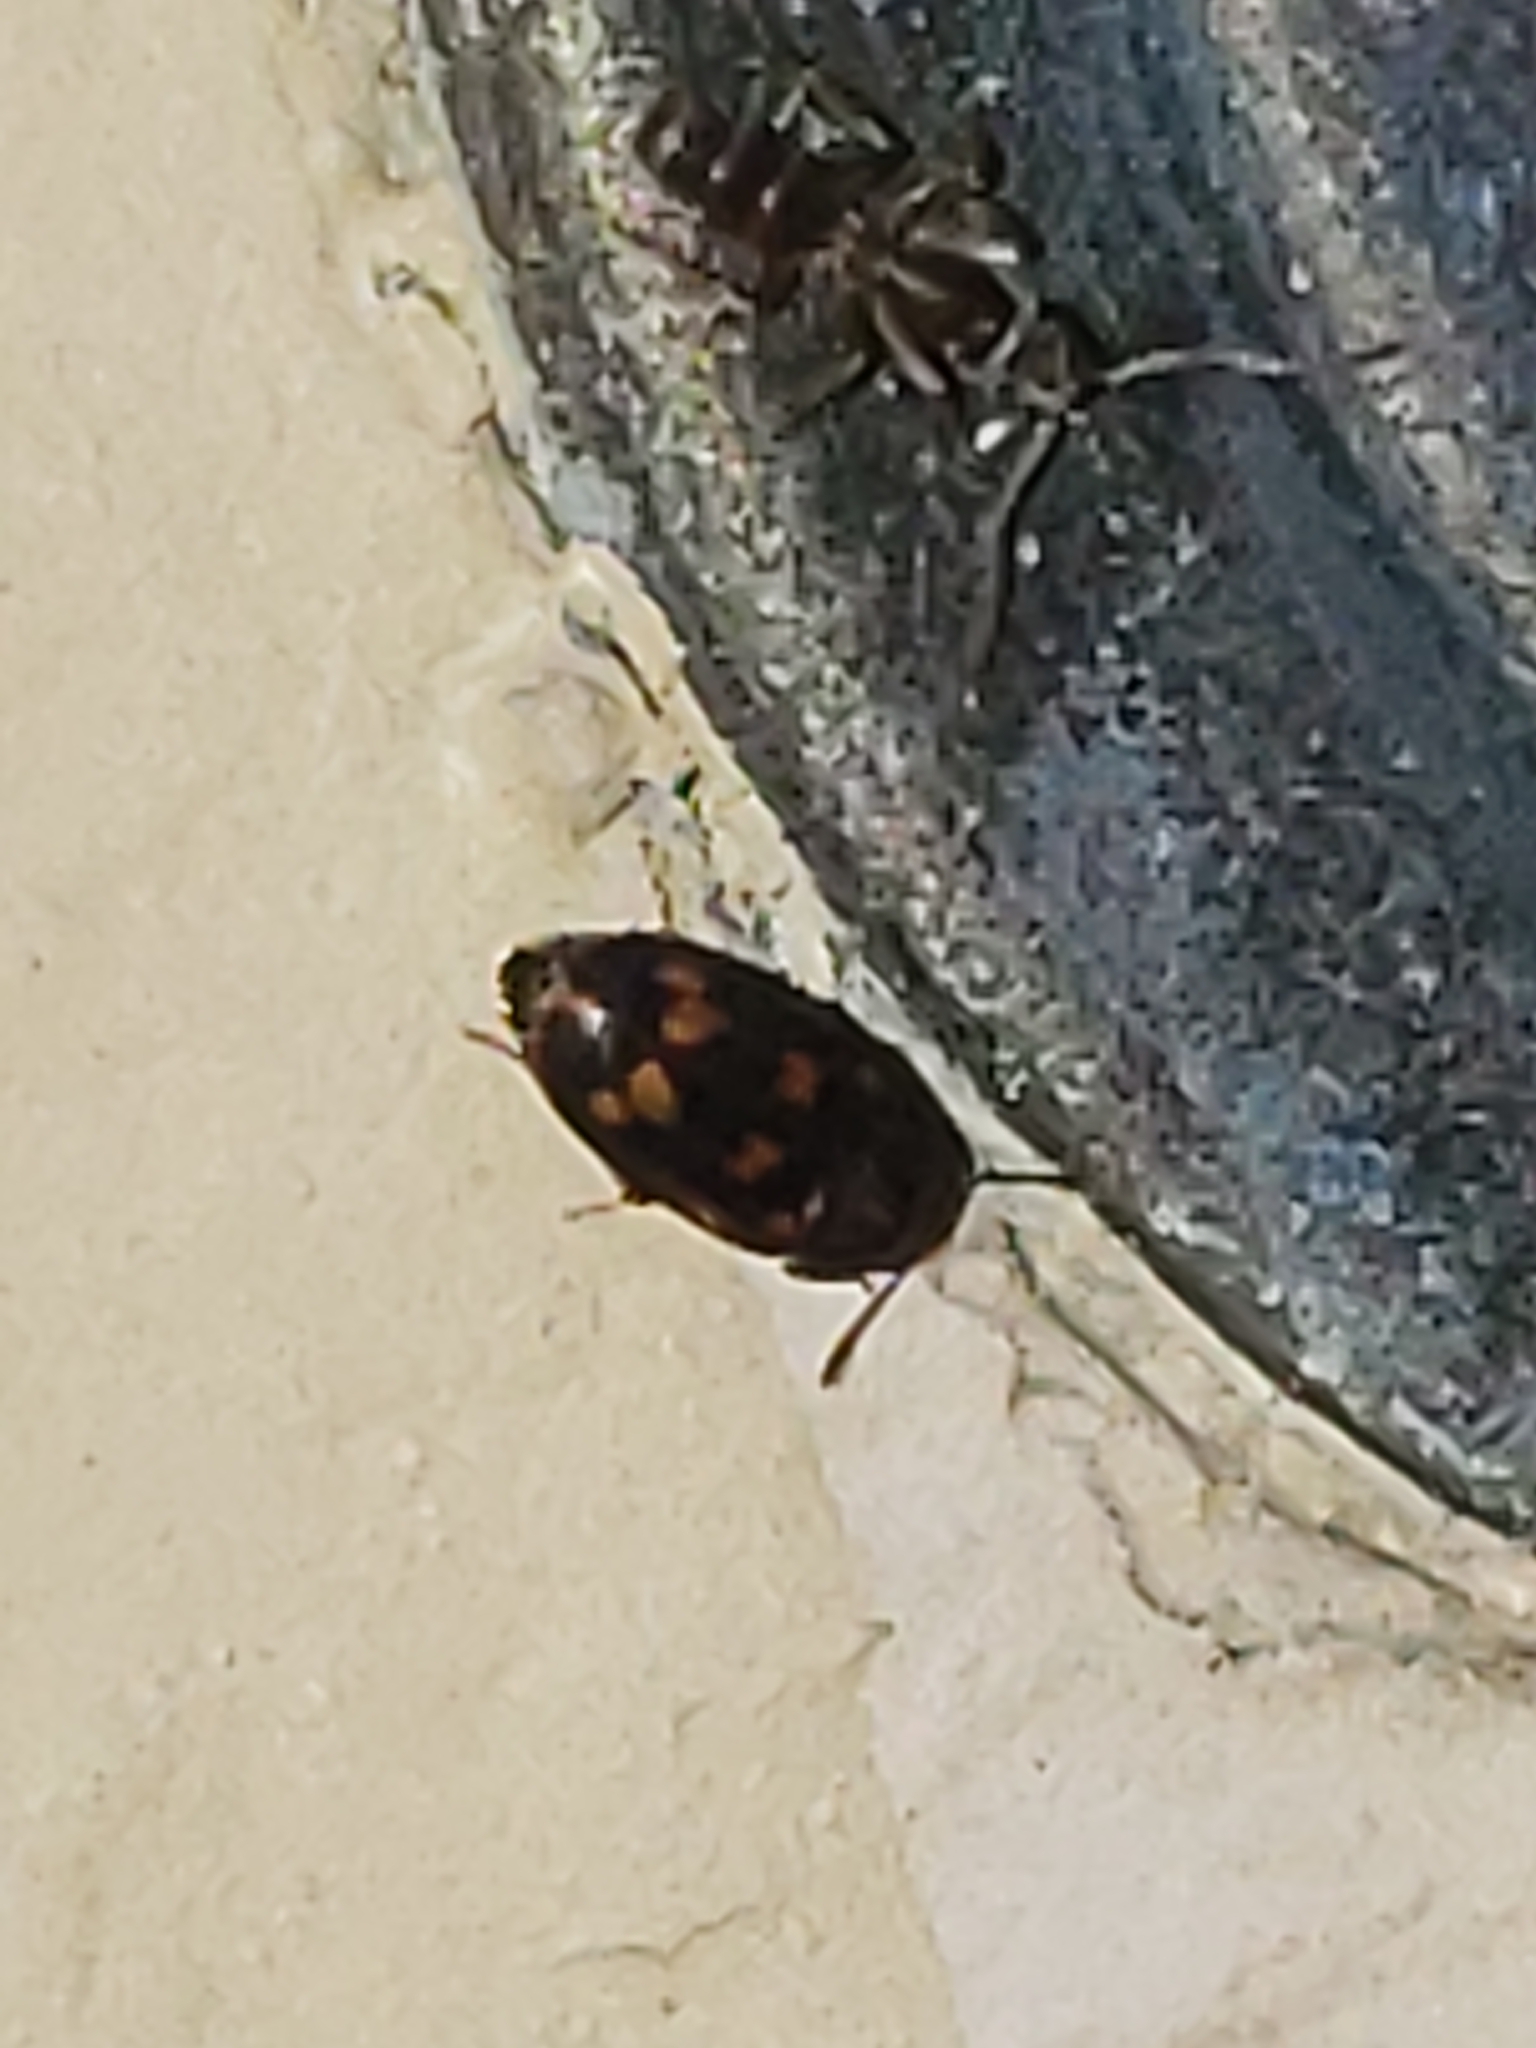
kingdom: Animalia
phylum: Arthropoda
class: Insecta
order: Coleoptera
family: Mycetophagidae
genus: Litargus
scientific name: Litargus sexpunctatus
